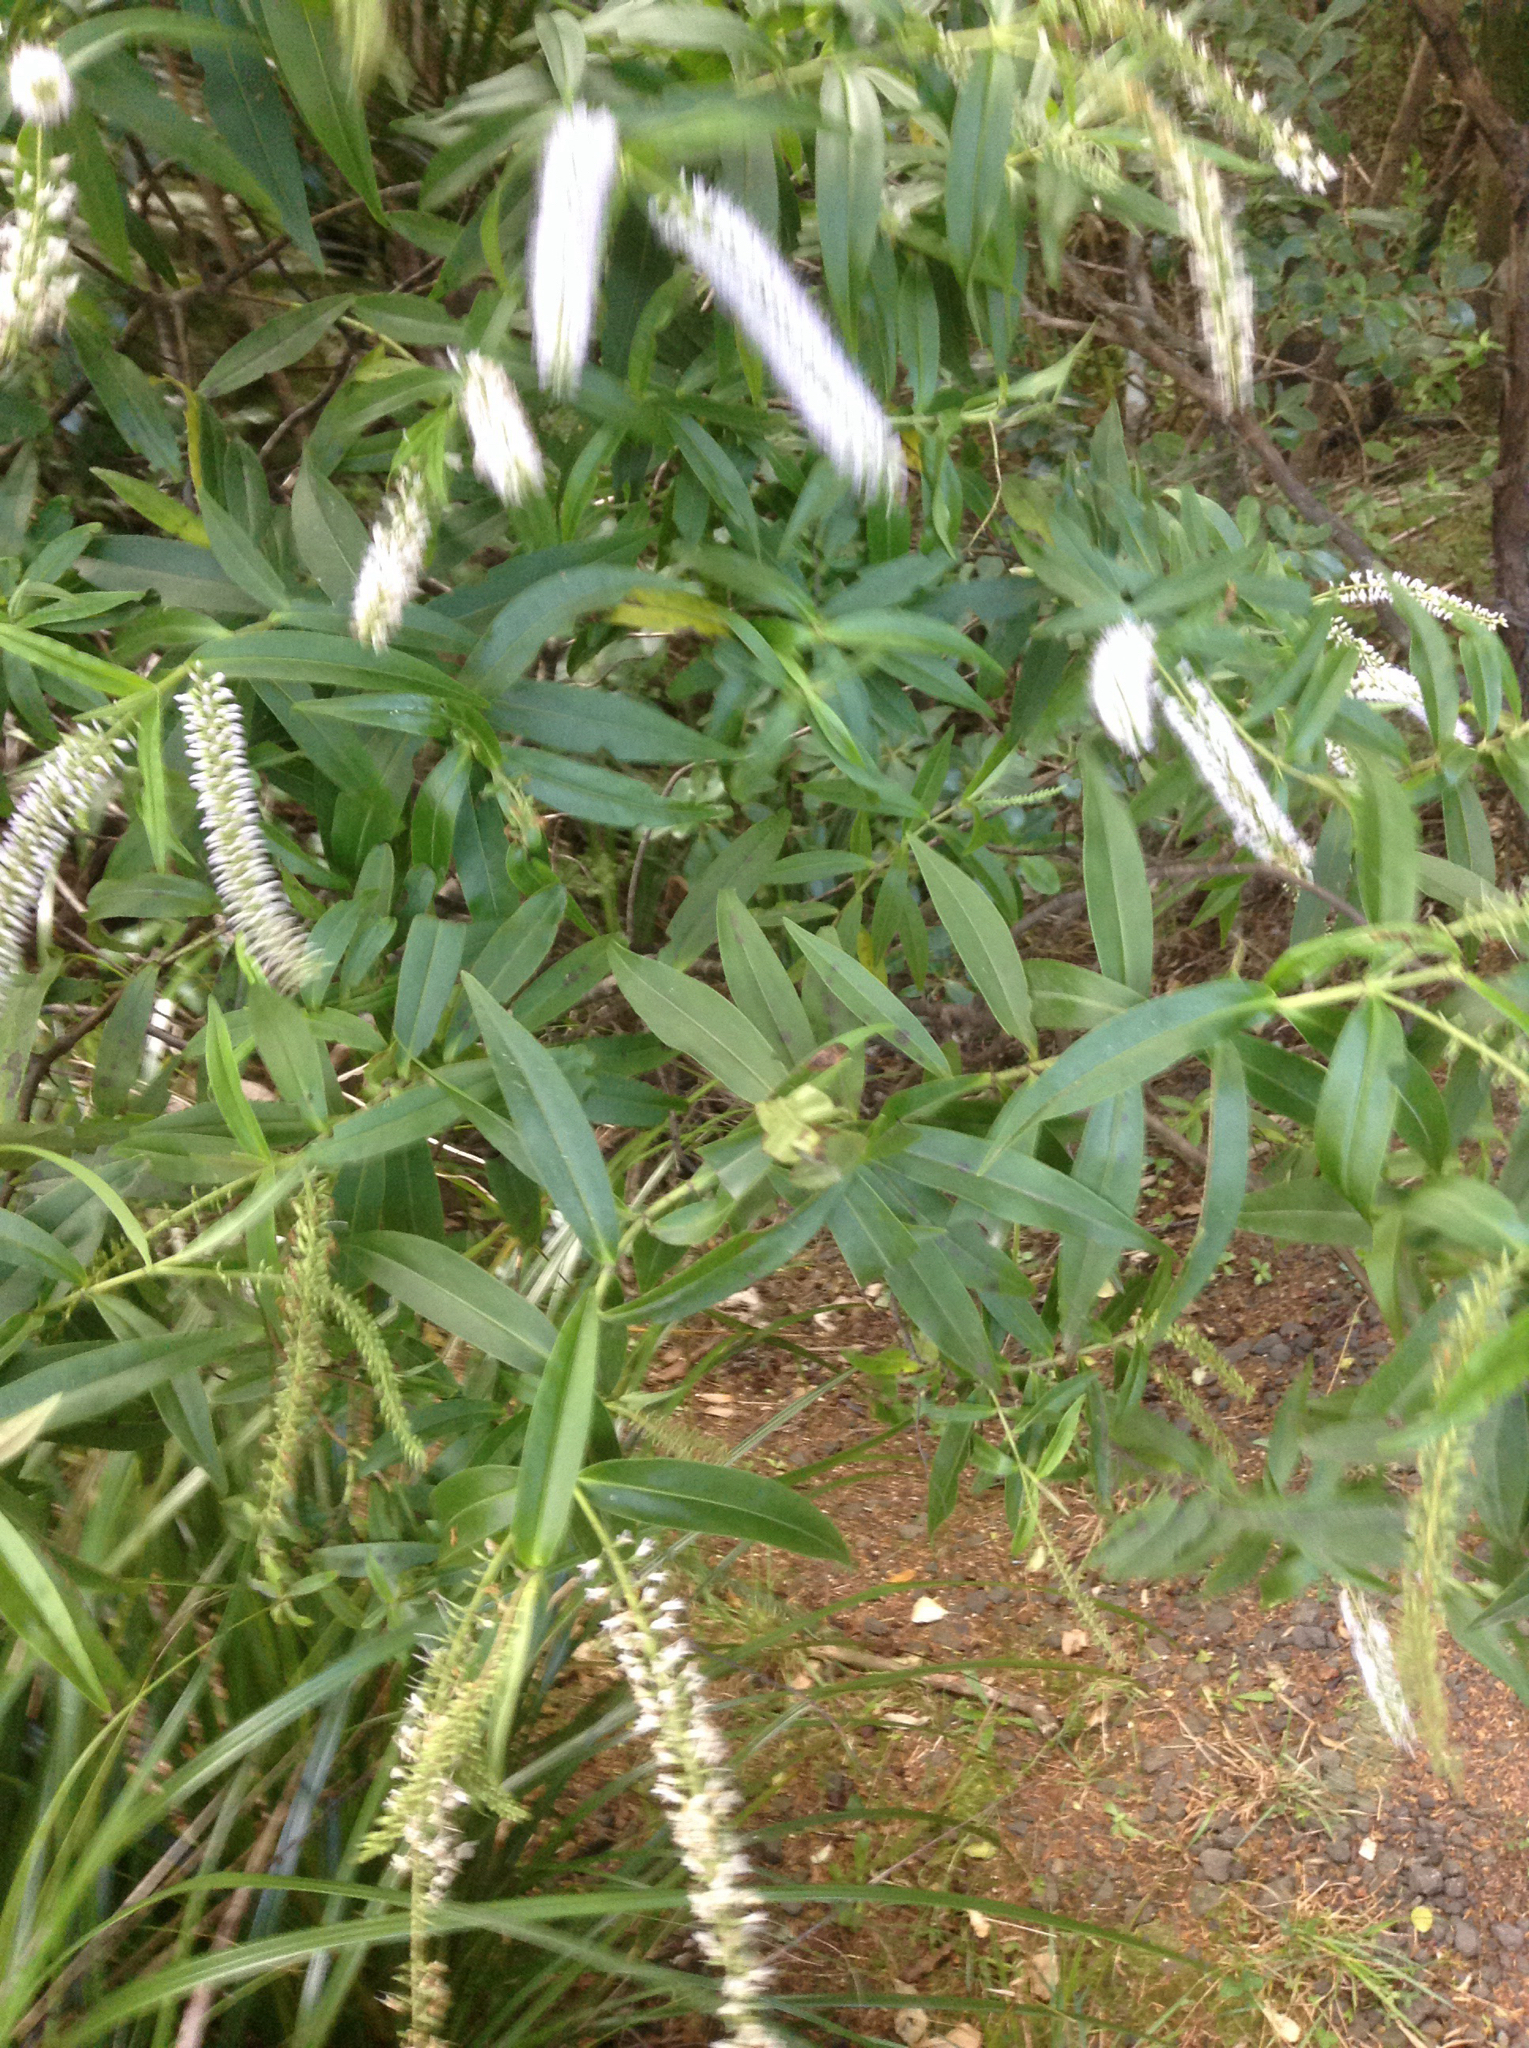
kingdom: Plantae
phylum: Tracheophyta
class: Magnoliopsida
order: Lamiales
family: Plantaginaceae
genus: Veronica
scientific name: Veronica stricta
